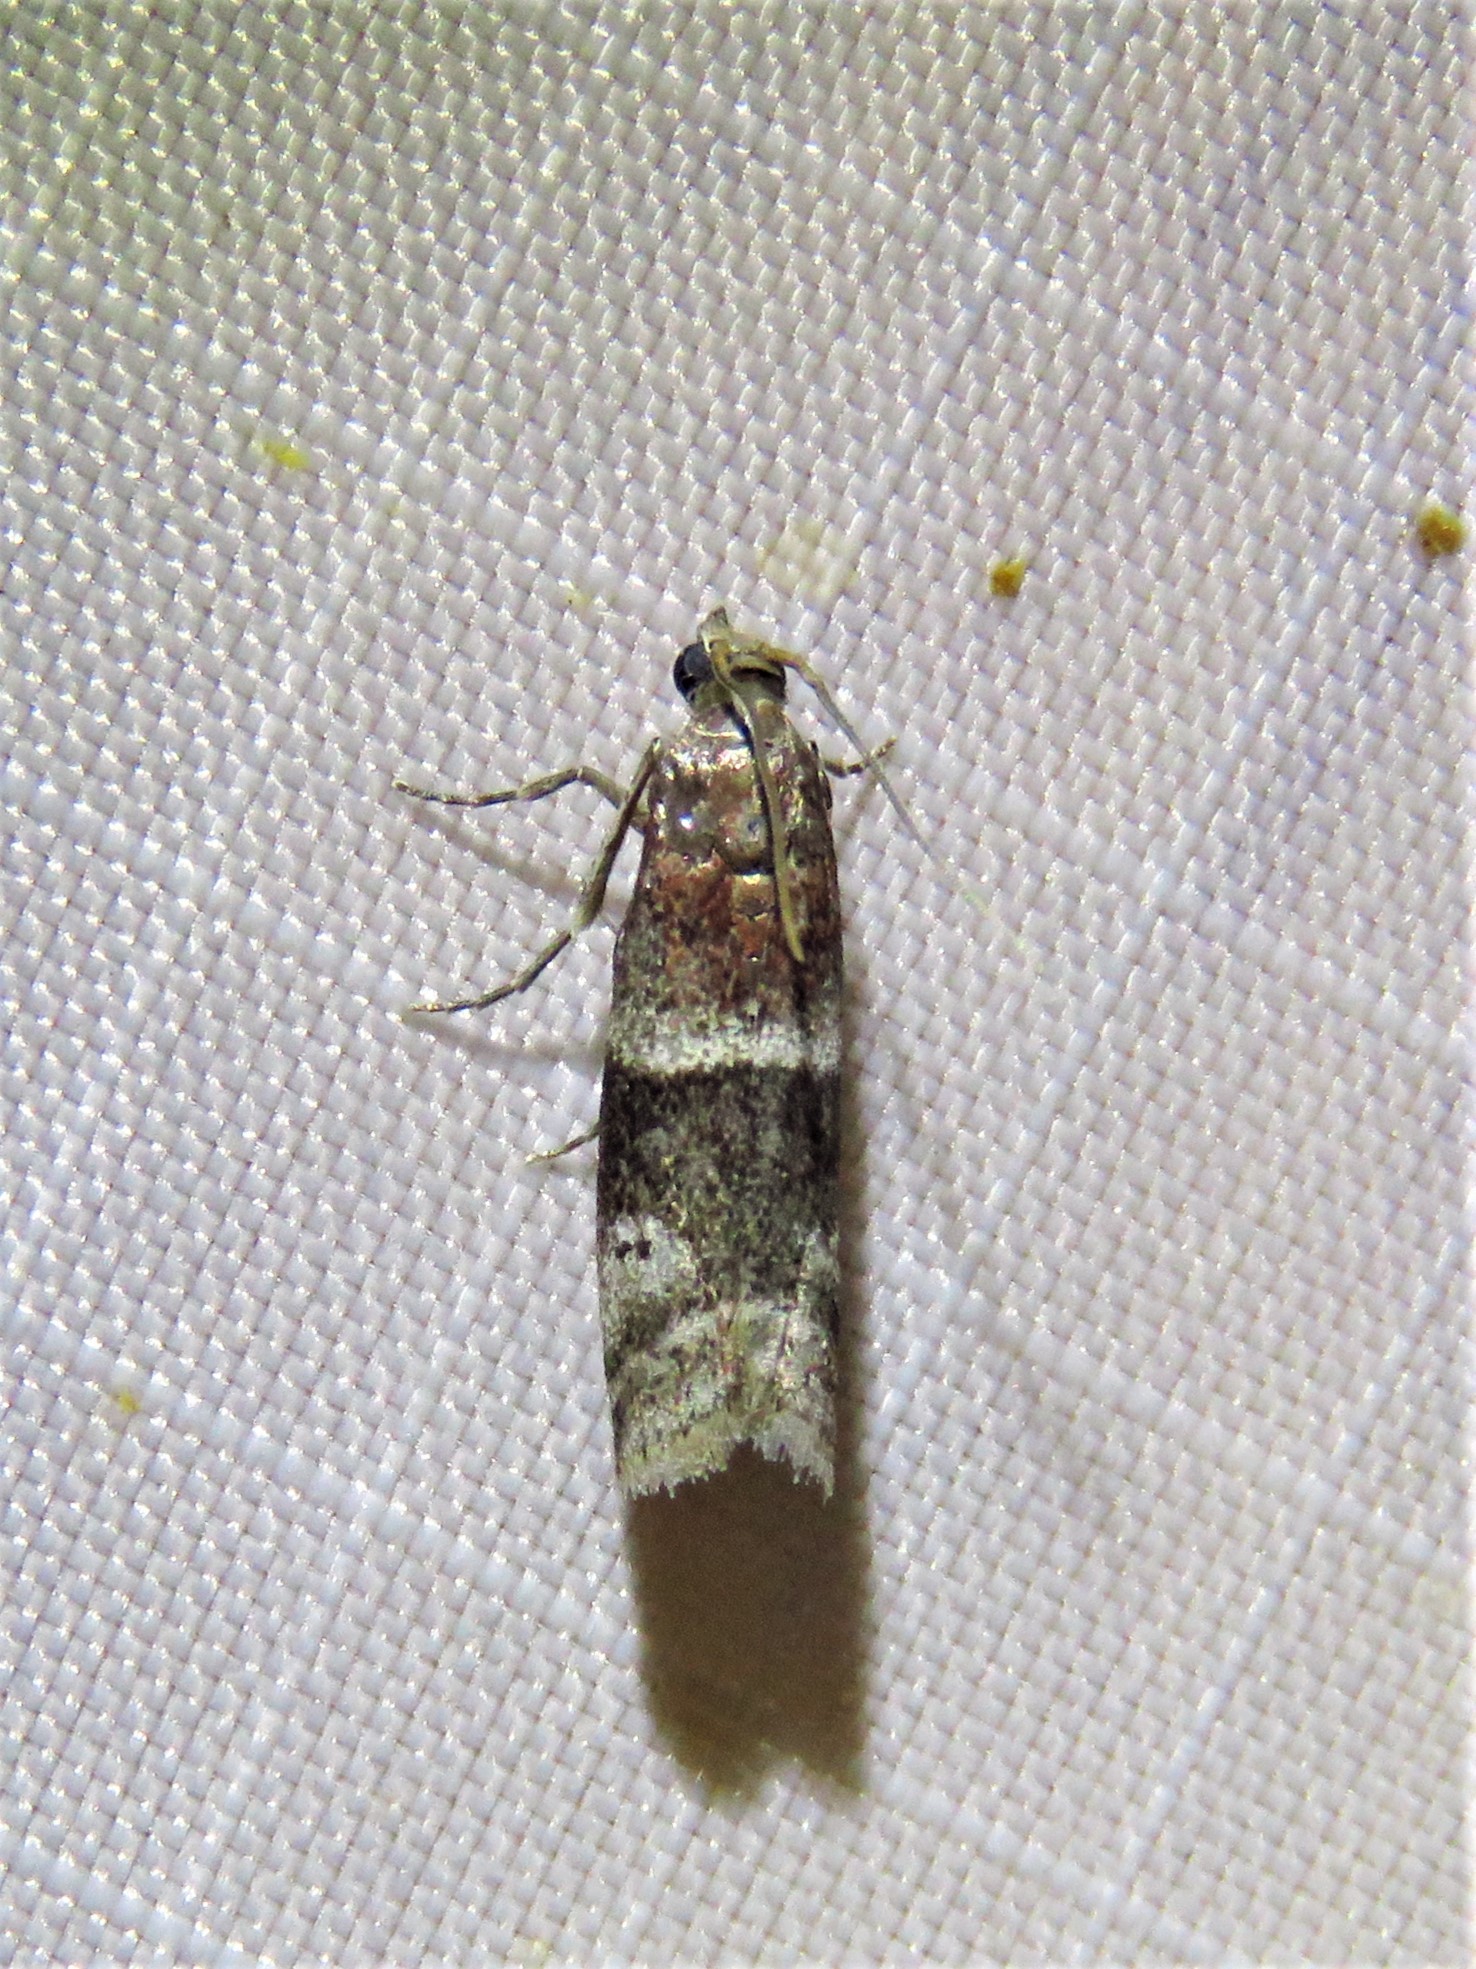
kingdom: Animalia
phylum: Arthropoda
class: Insecta
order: Lepidoptera
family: Pyralidae
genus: Moodna
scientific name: Moodna ostrinella
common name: Darker moodna moth
